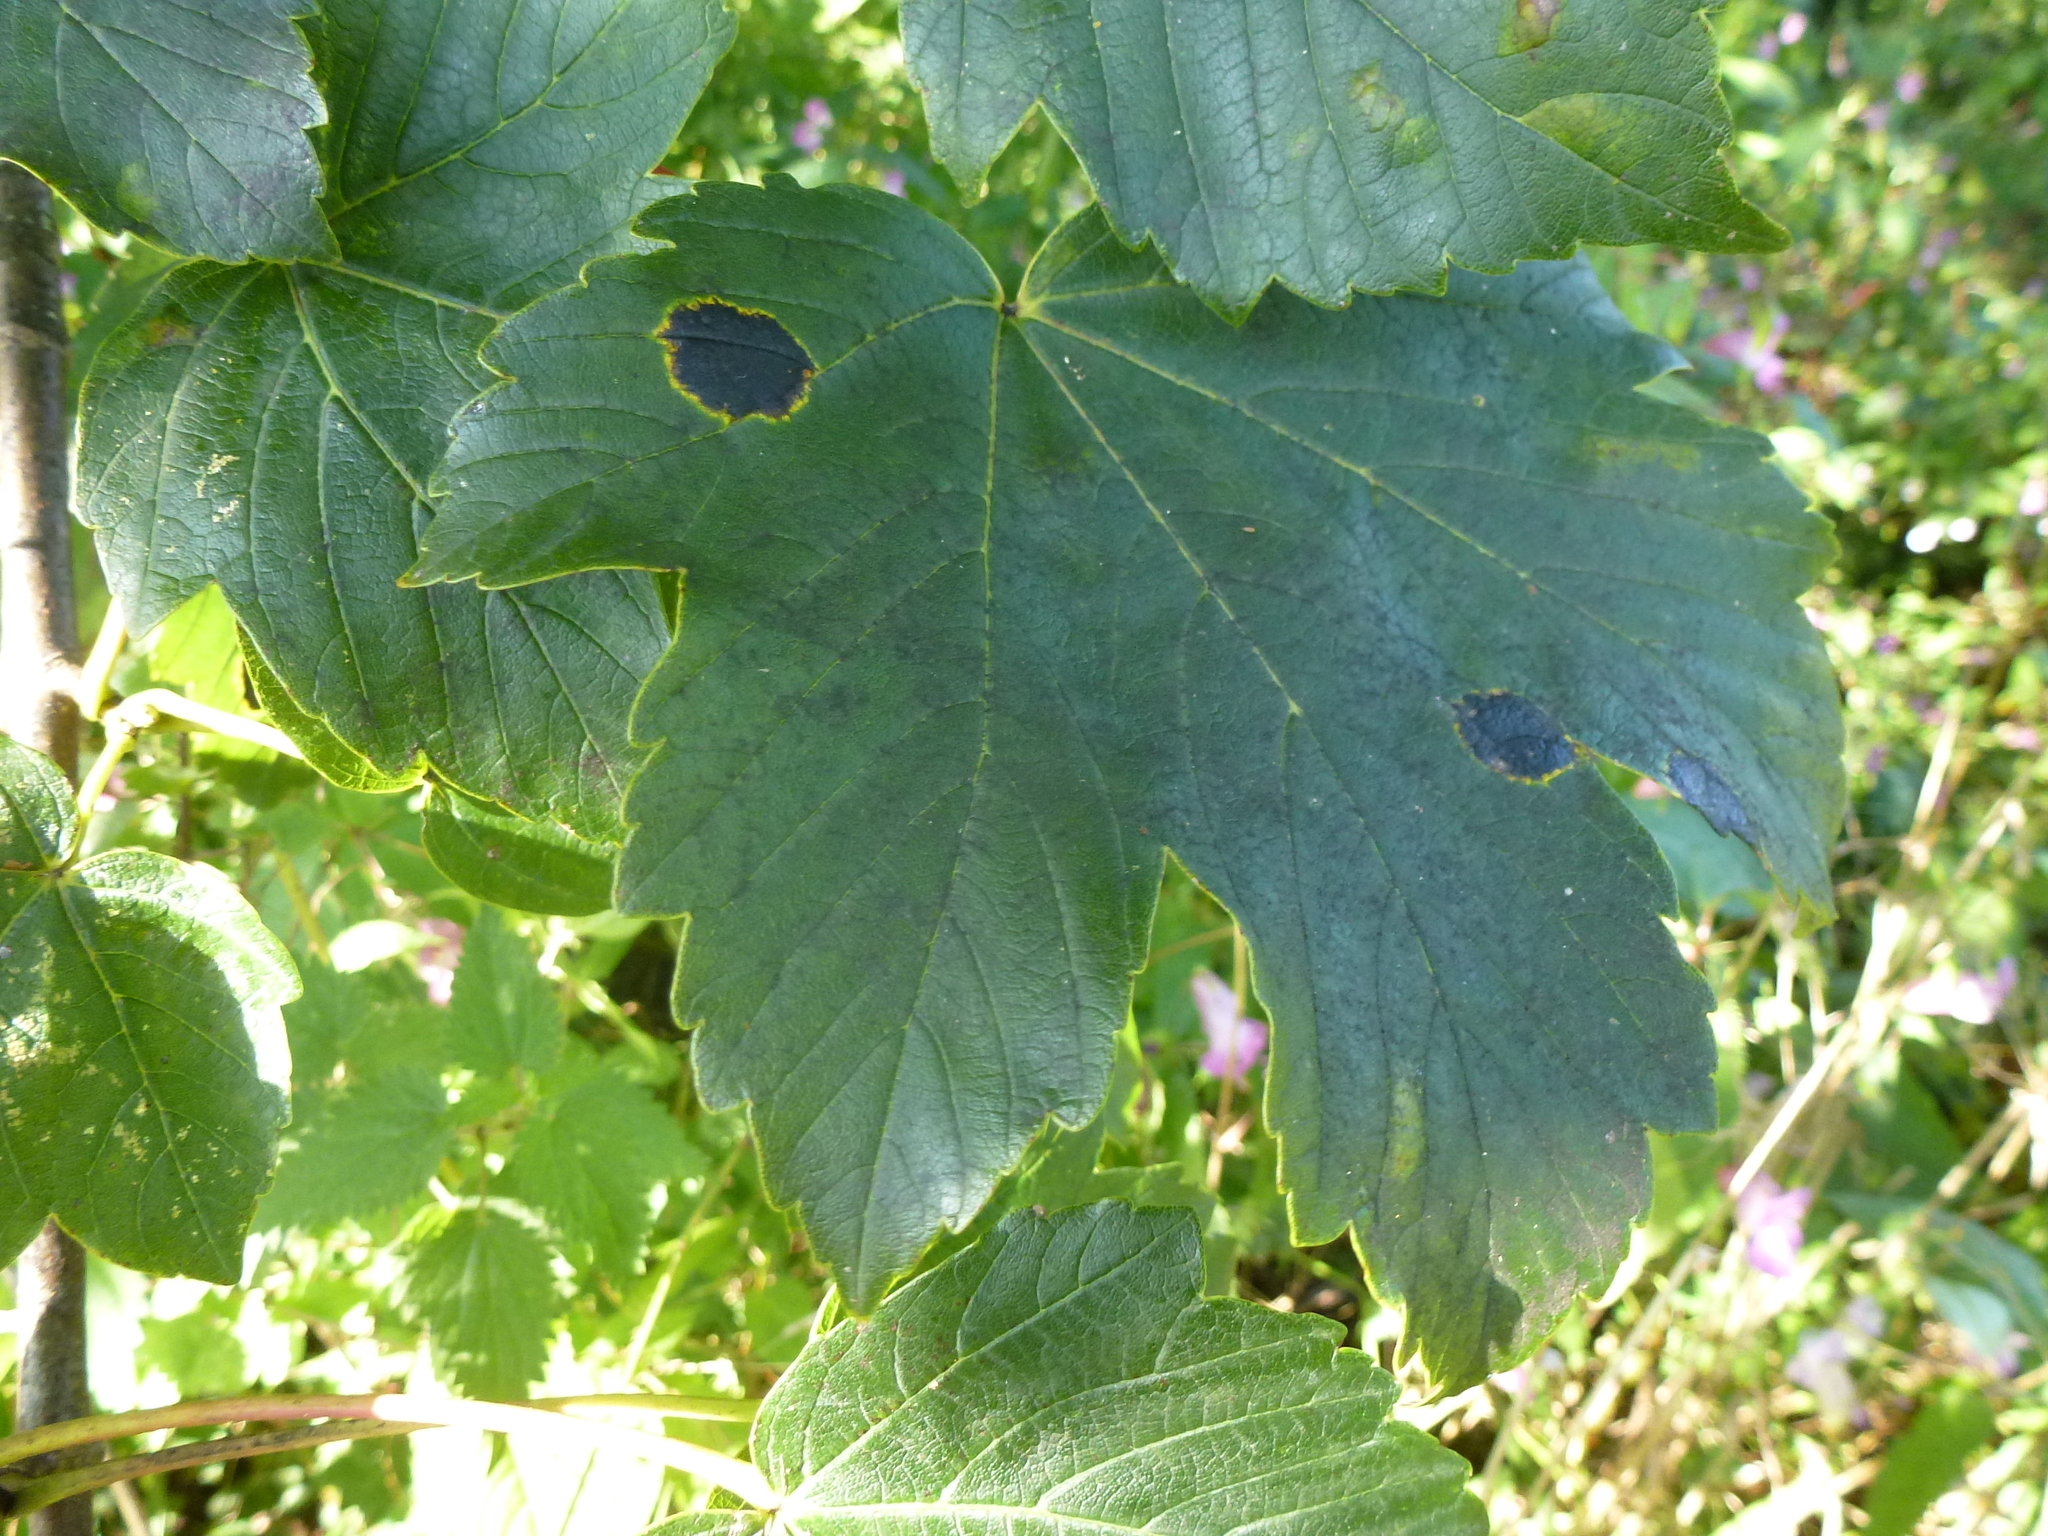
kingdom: Fungi
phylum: Ascomycota
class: Leotiomycetes
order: Rhytismatales
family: Rhytismataceae
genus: Rhytisma
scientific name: Rhytisma acerinum
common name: European tar spot
